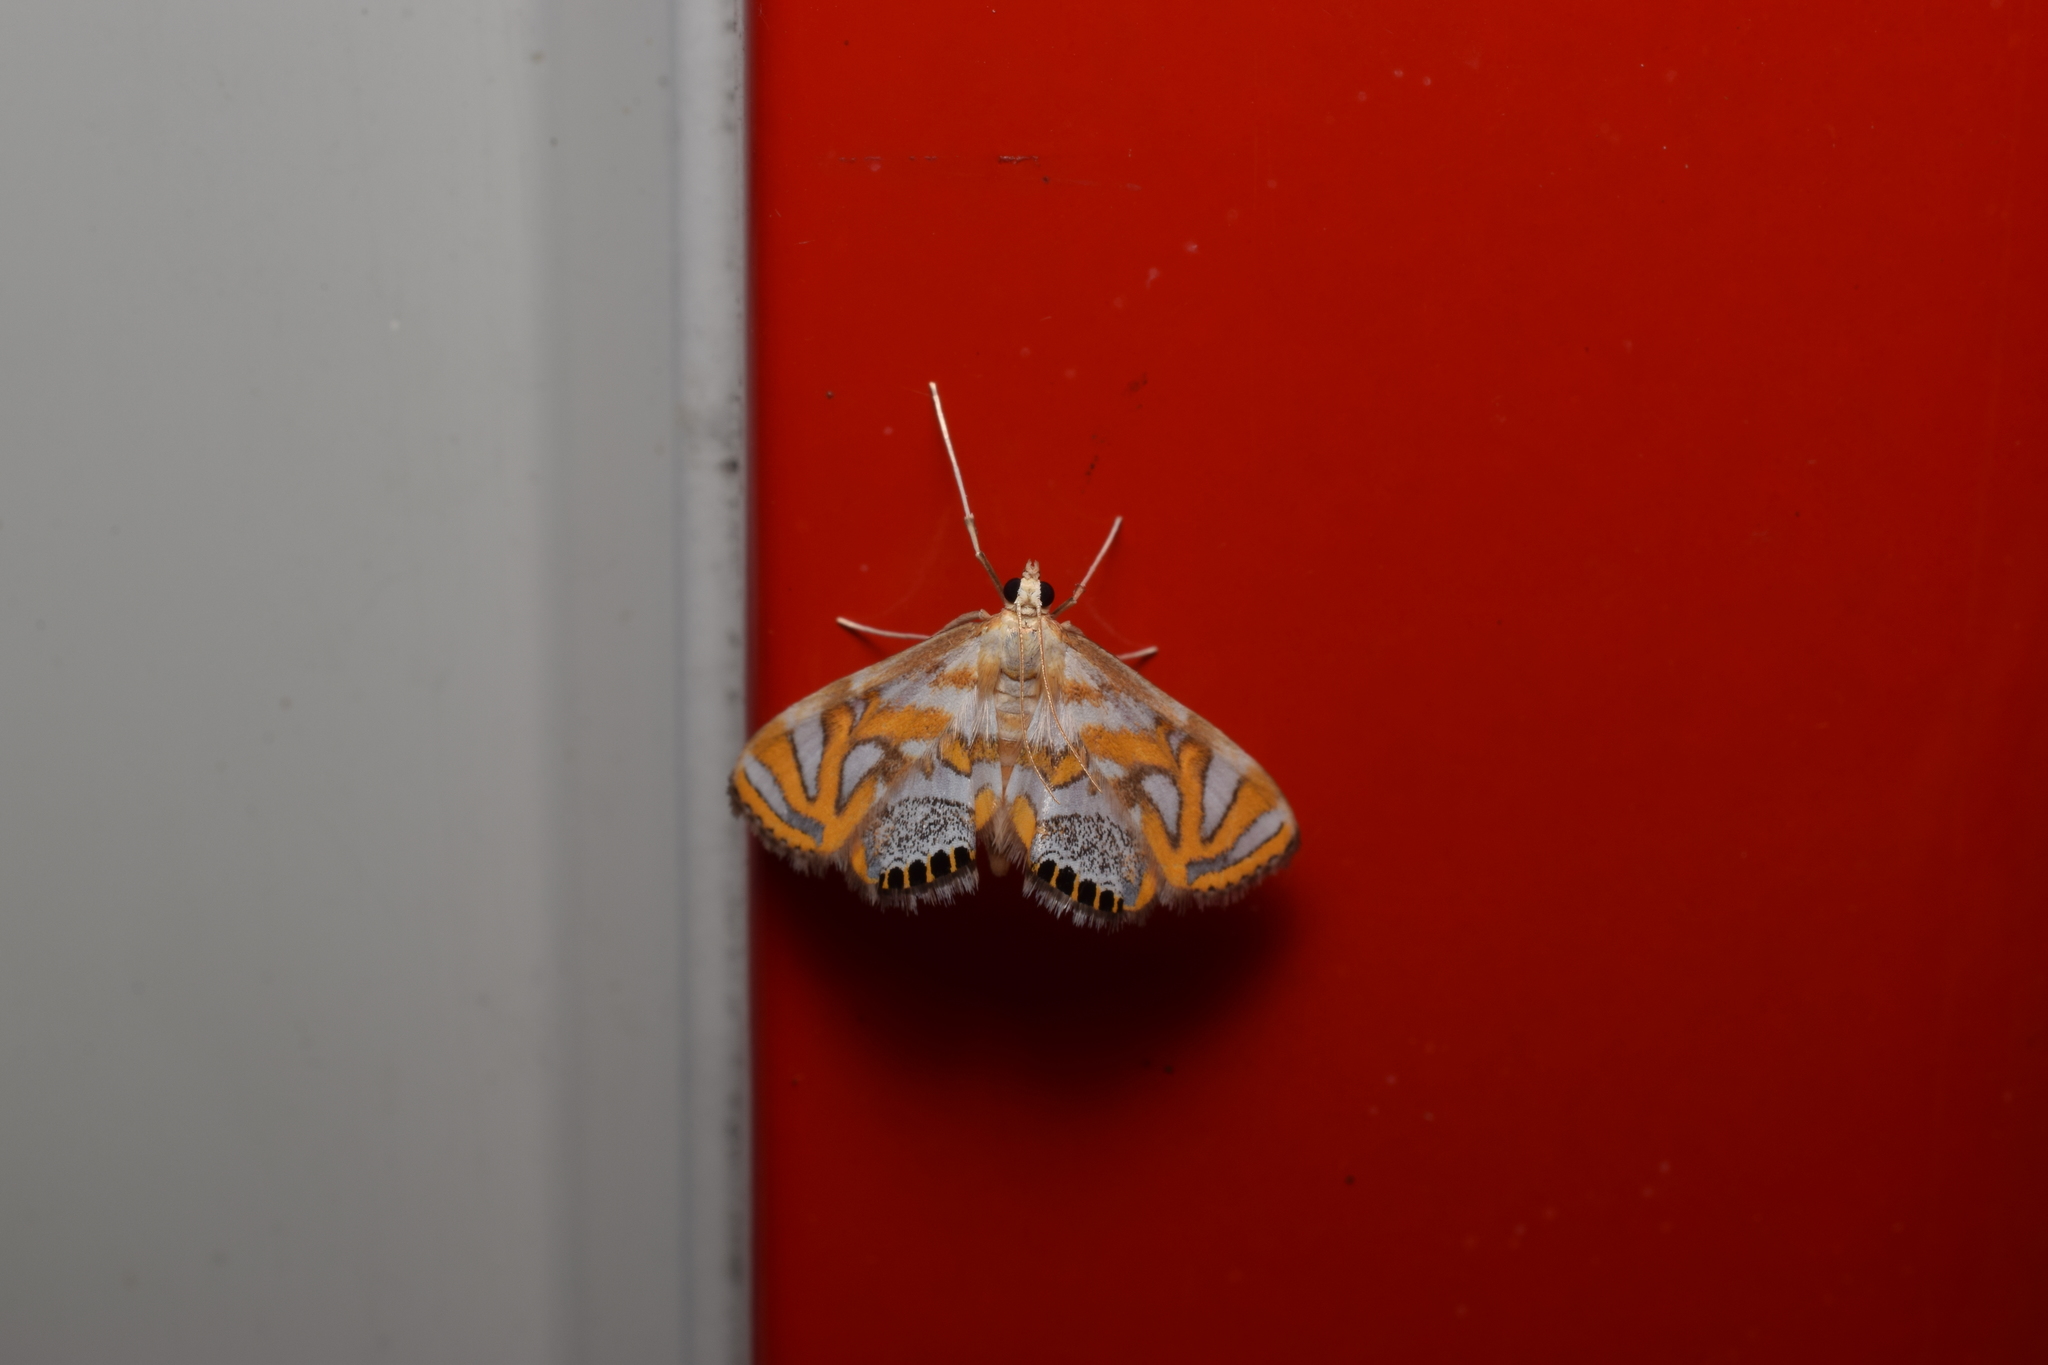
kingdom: Animalia
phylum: Arthropoda
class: Insecta
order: Lepidoptera
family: Crambidae
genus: Potamomusa
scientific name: Potamomusa midas
